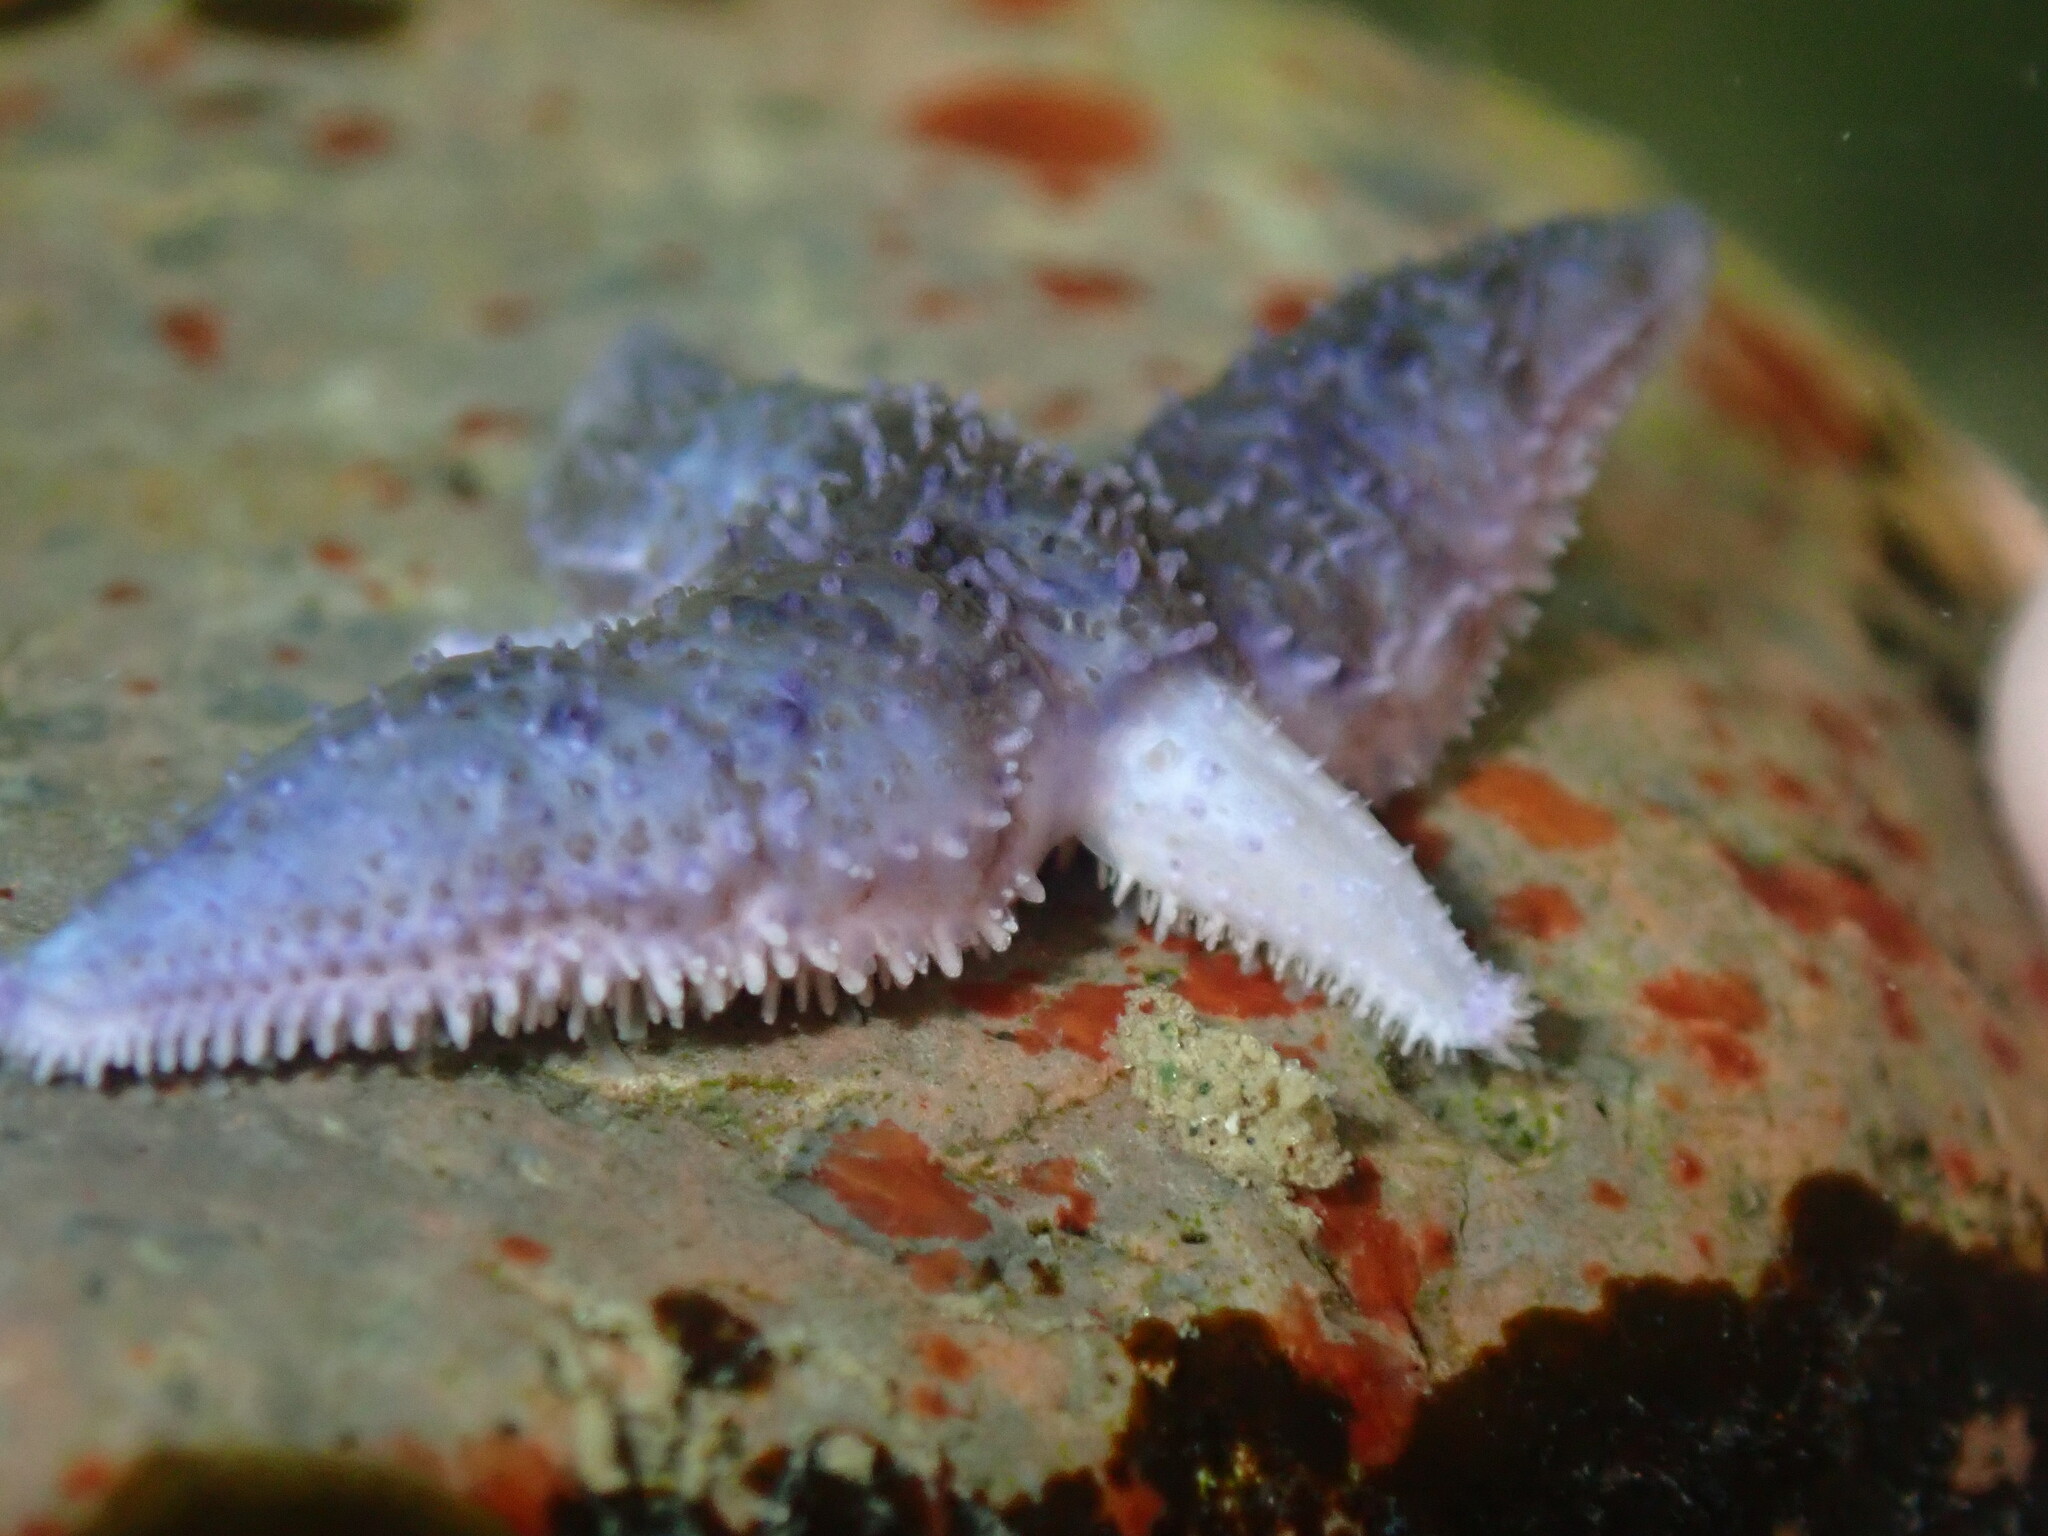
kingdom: Animalia
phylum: Echinodermata
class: Asteroidea
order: Forcipulatida
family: Asteriidae
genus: Asterias
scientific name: Asterias rubens
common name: Common starfish
